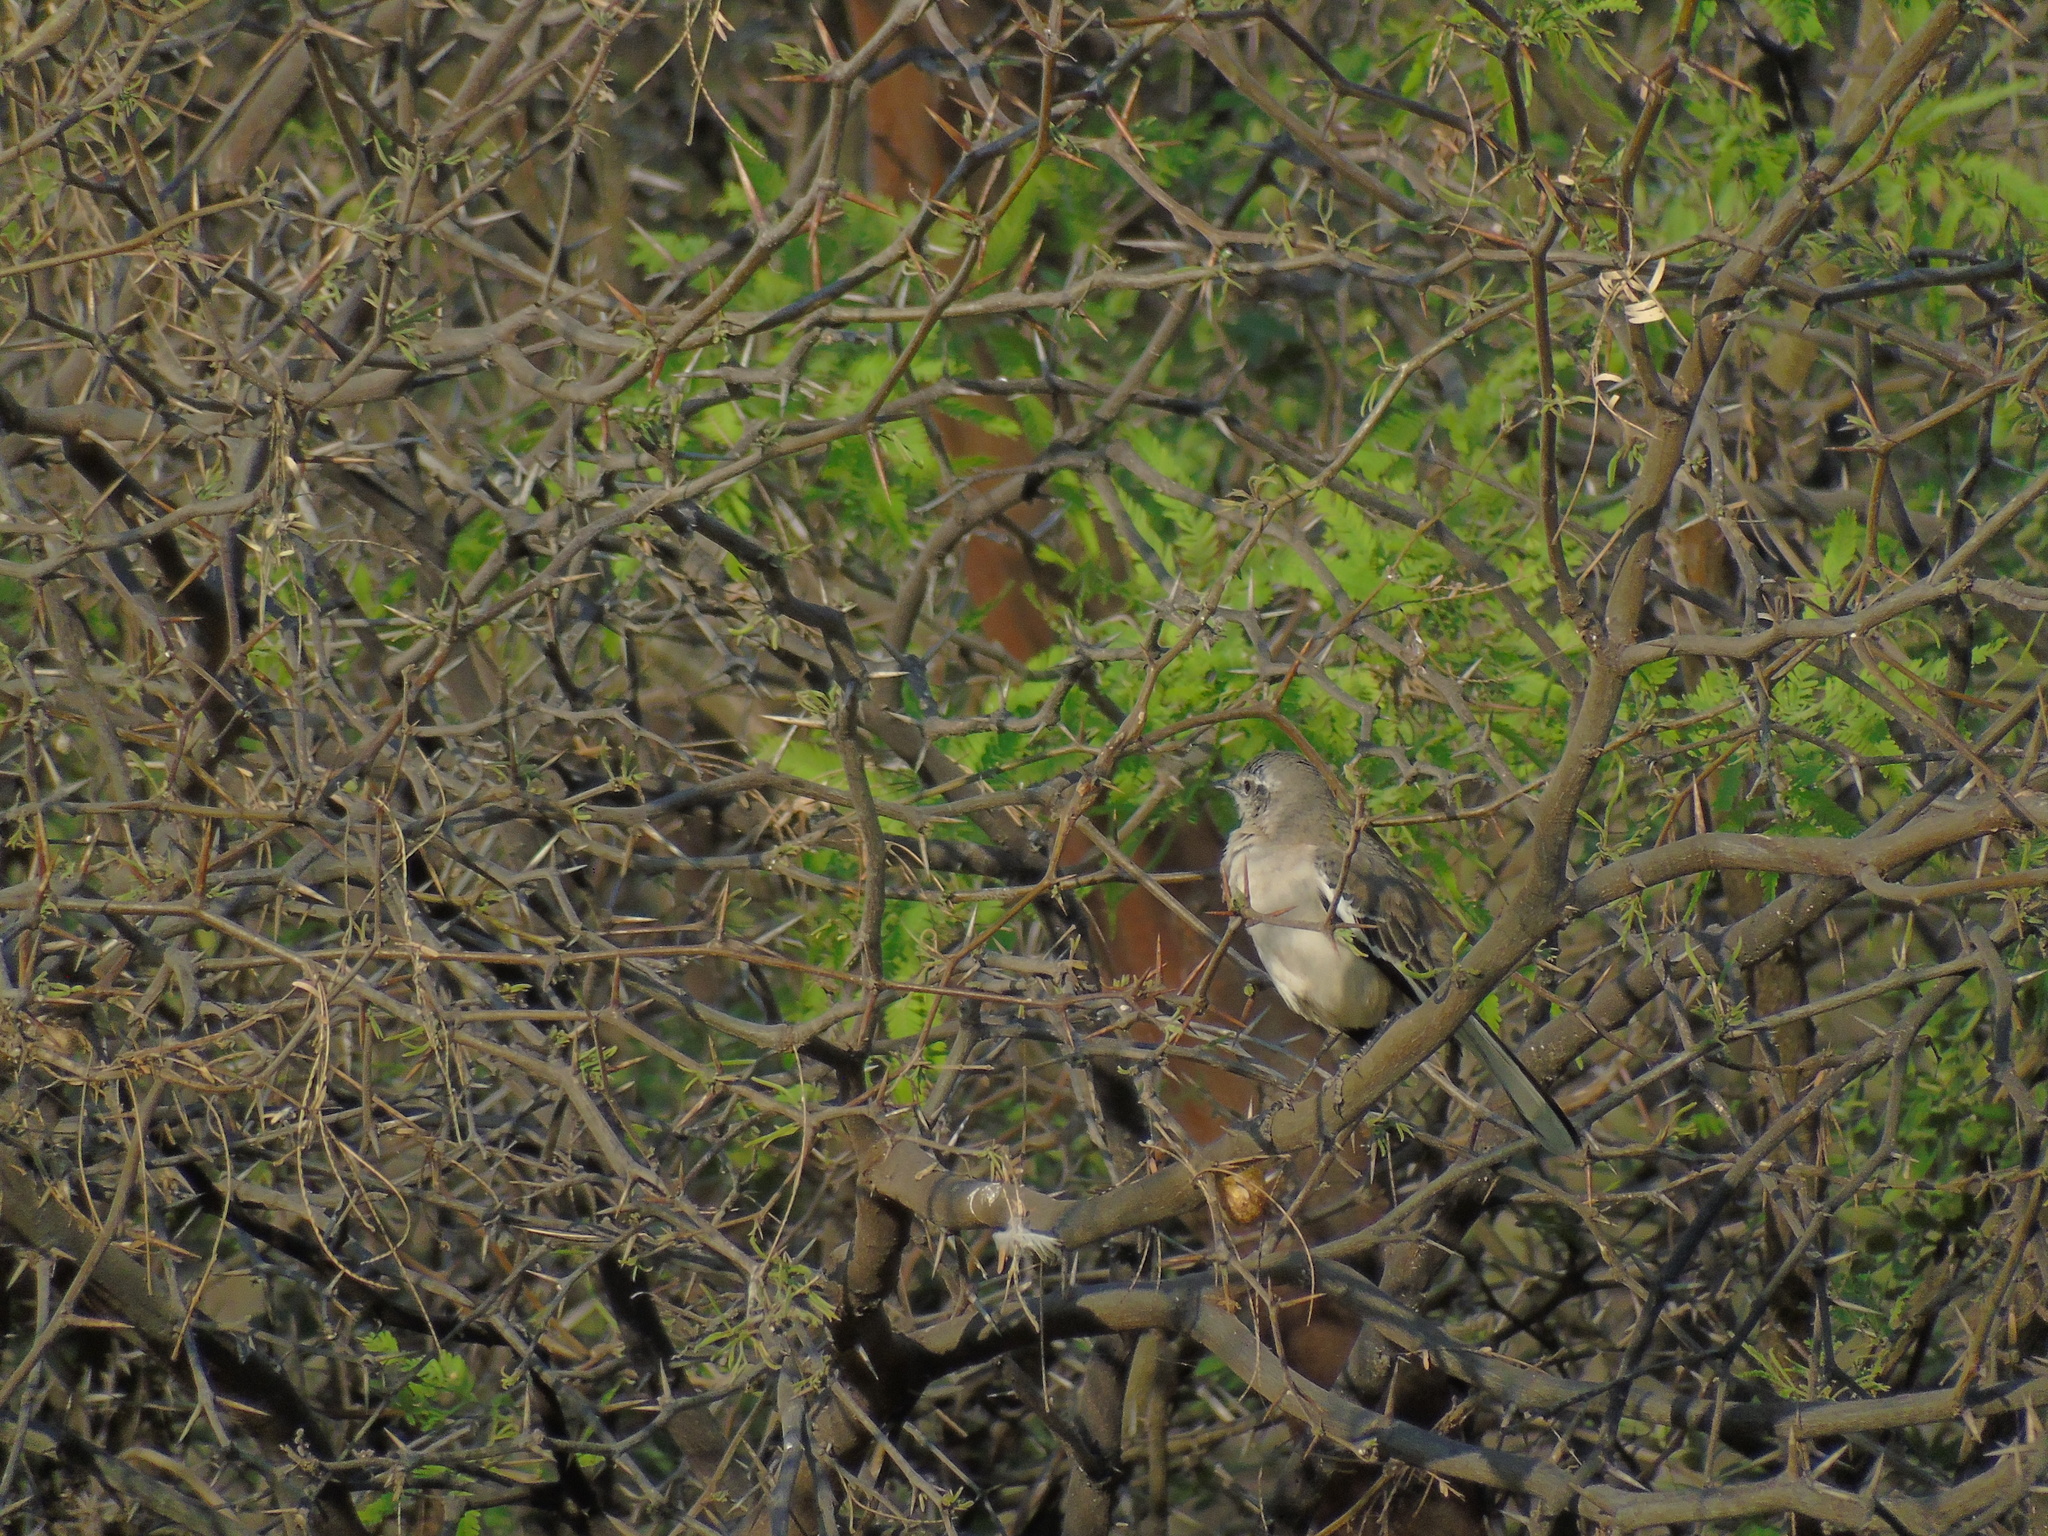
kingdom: Animalia
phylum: Chordata
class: Aves
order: Passeriformes
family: Mimidae
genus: Mimus
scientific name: Mimus triurus
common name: White-banded mockingbird
